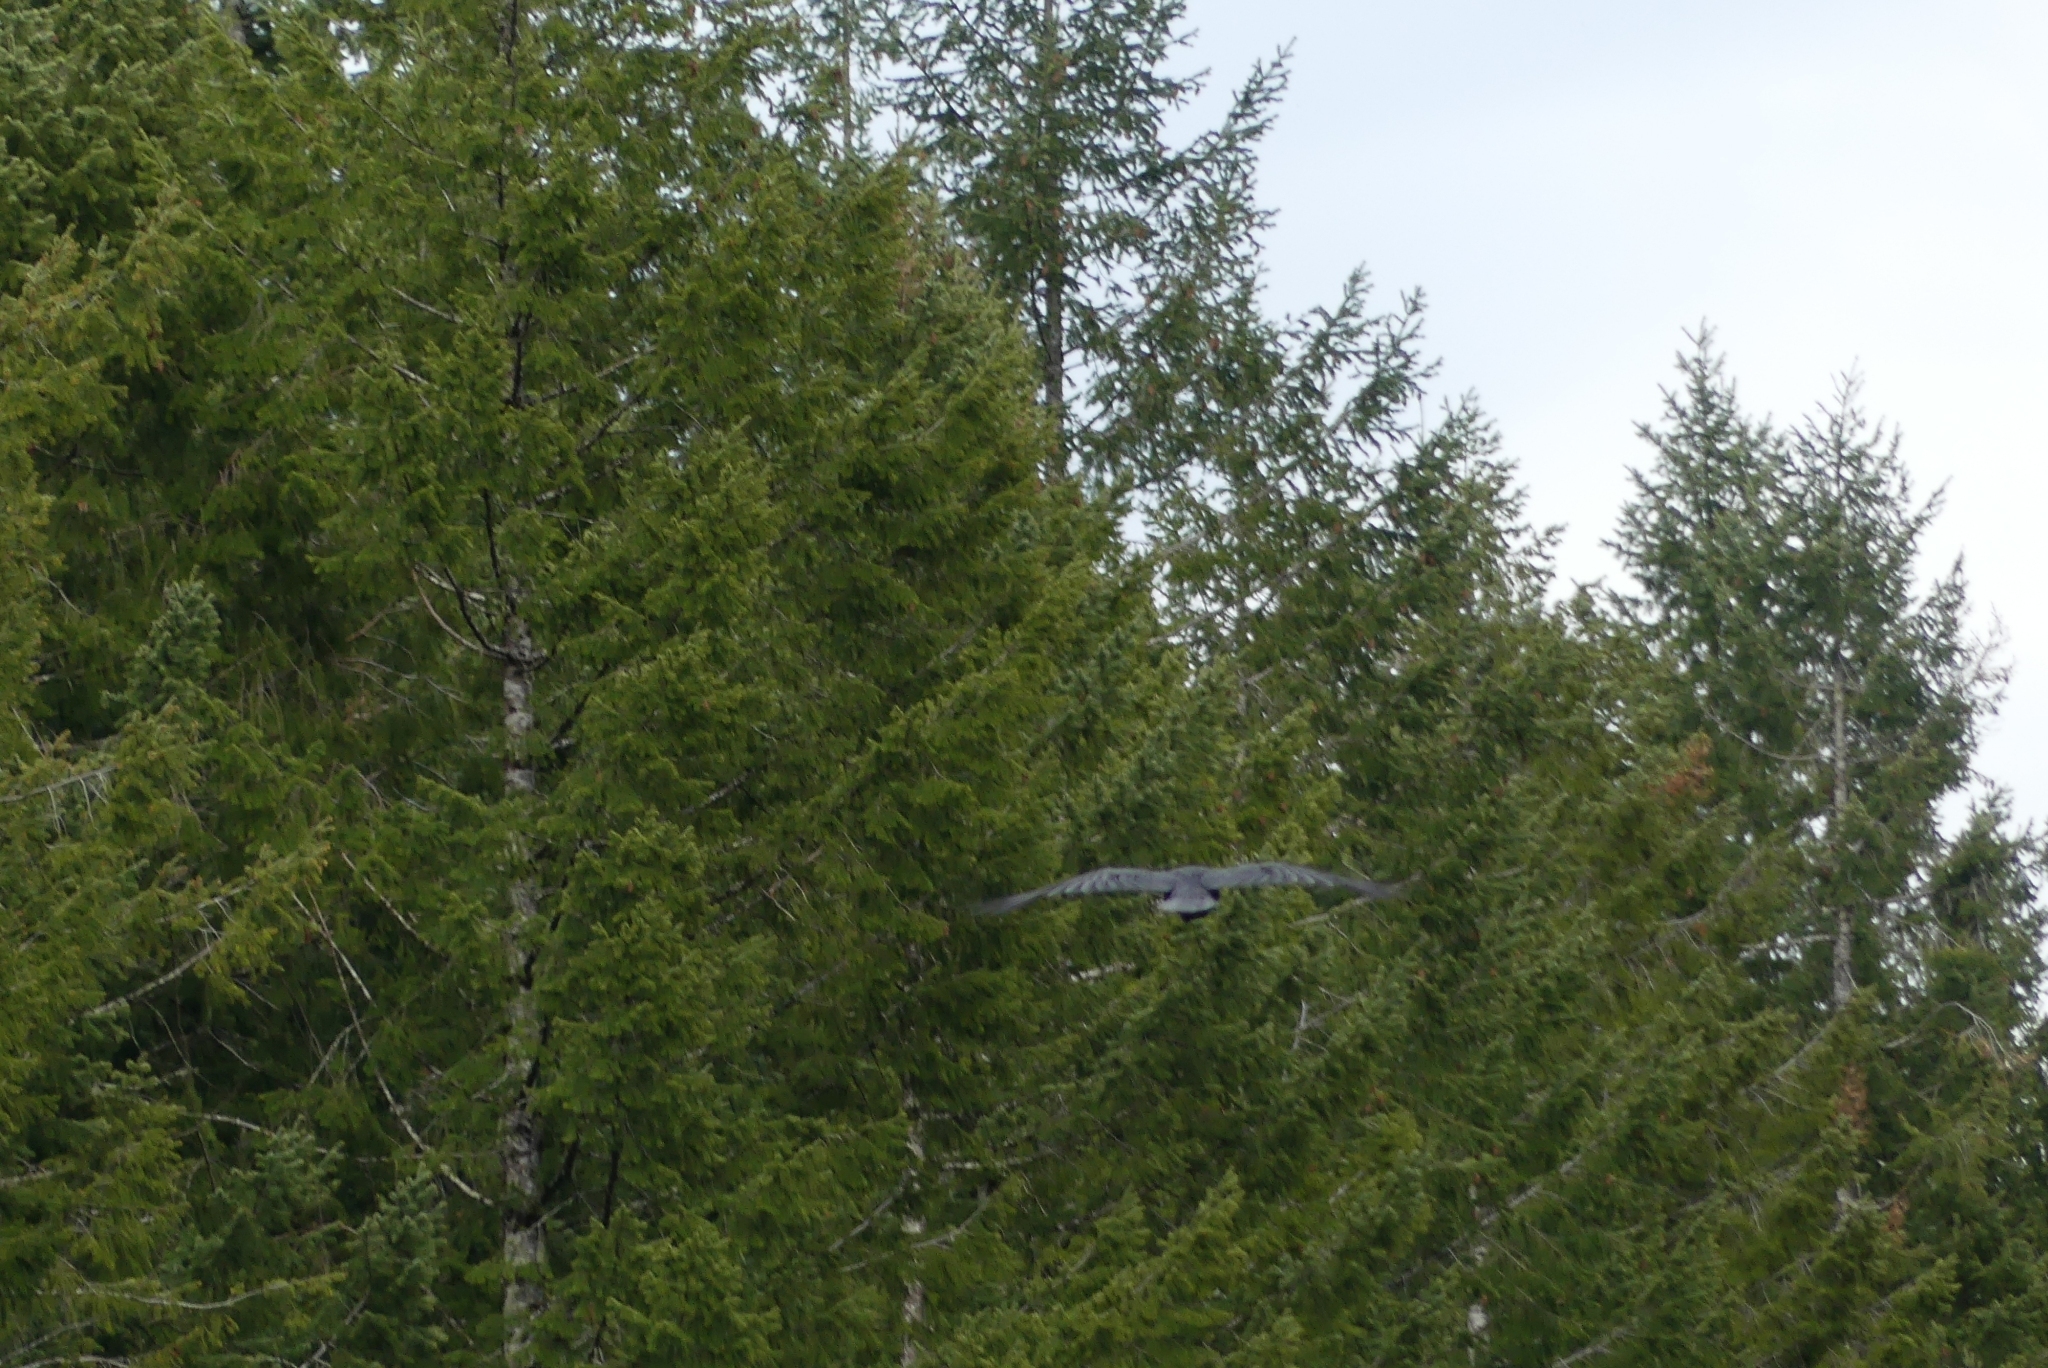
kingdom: Animalia
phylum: Chordata
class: Aves
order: Passeriformes
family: Corvidae
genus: Corvus
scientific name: Corvus corax
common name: Common raven
